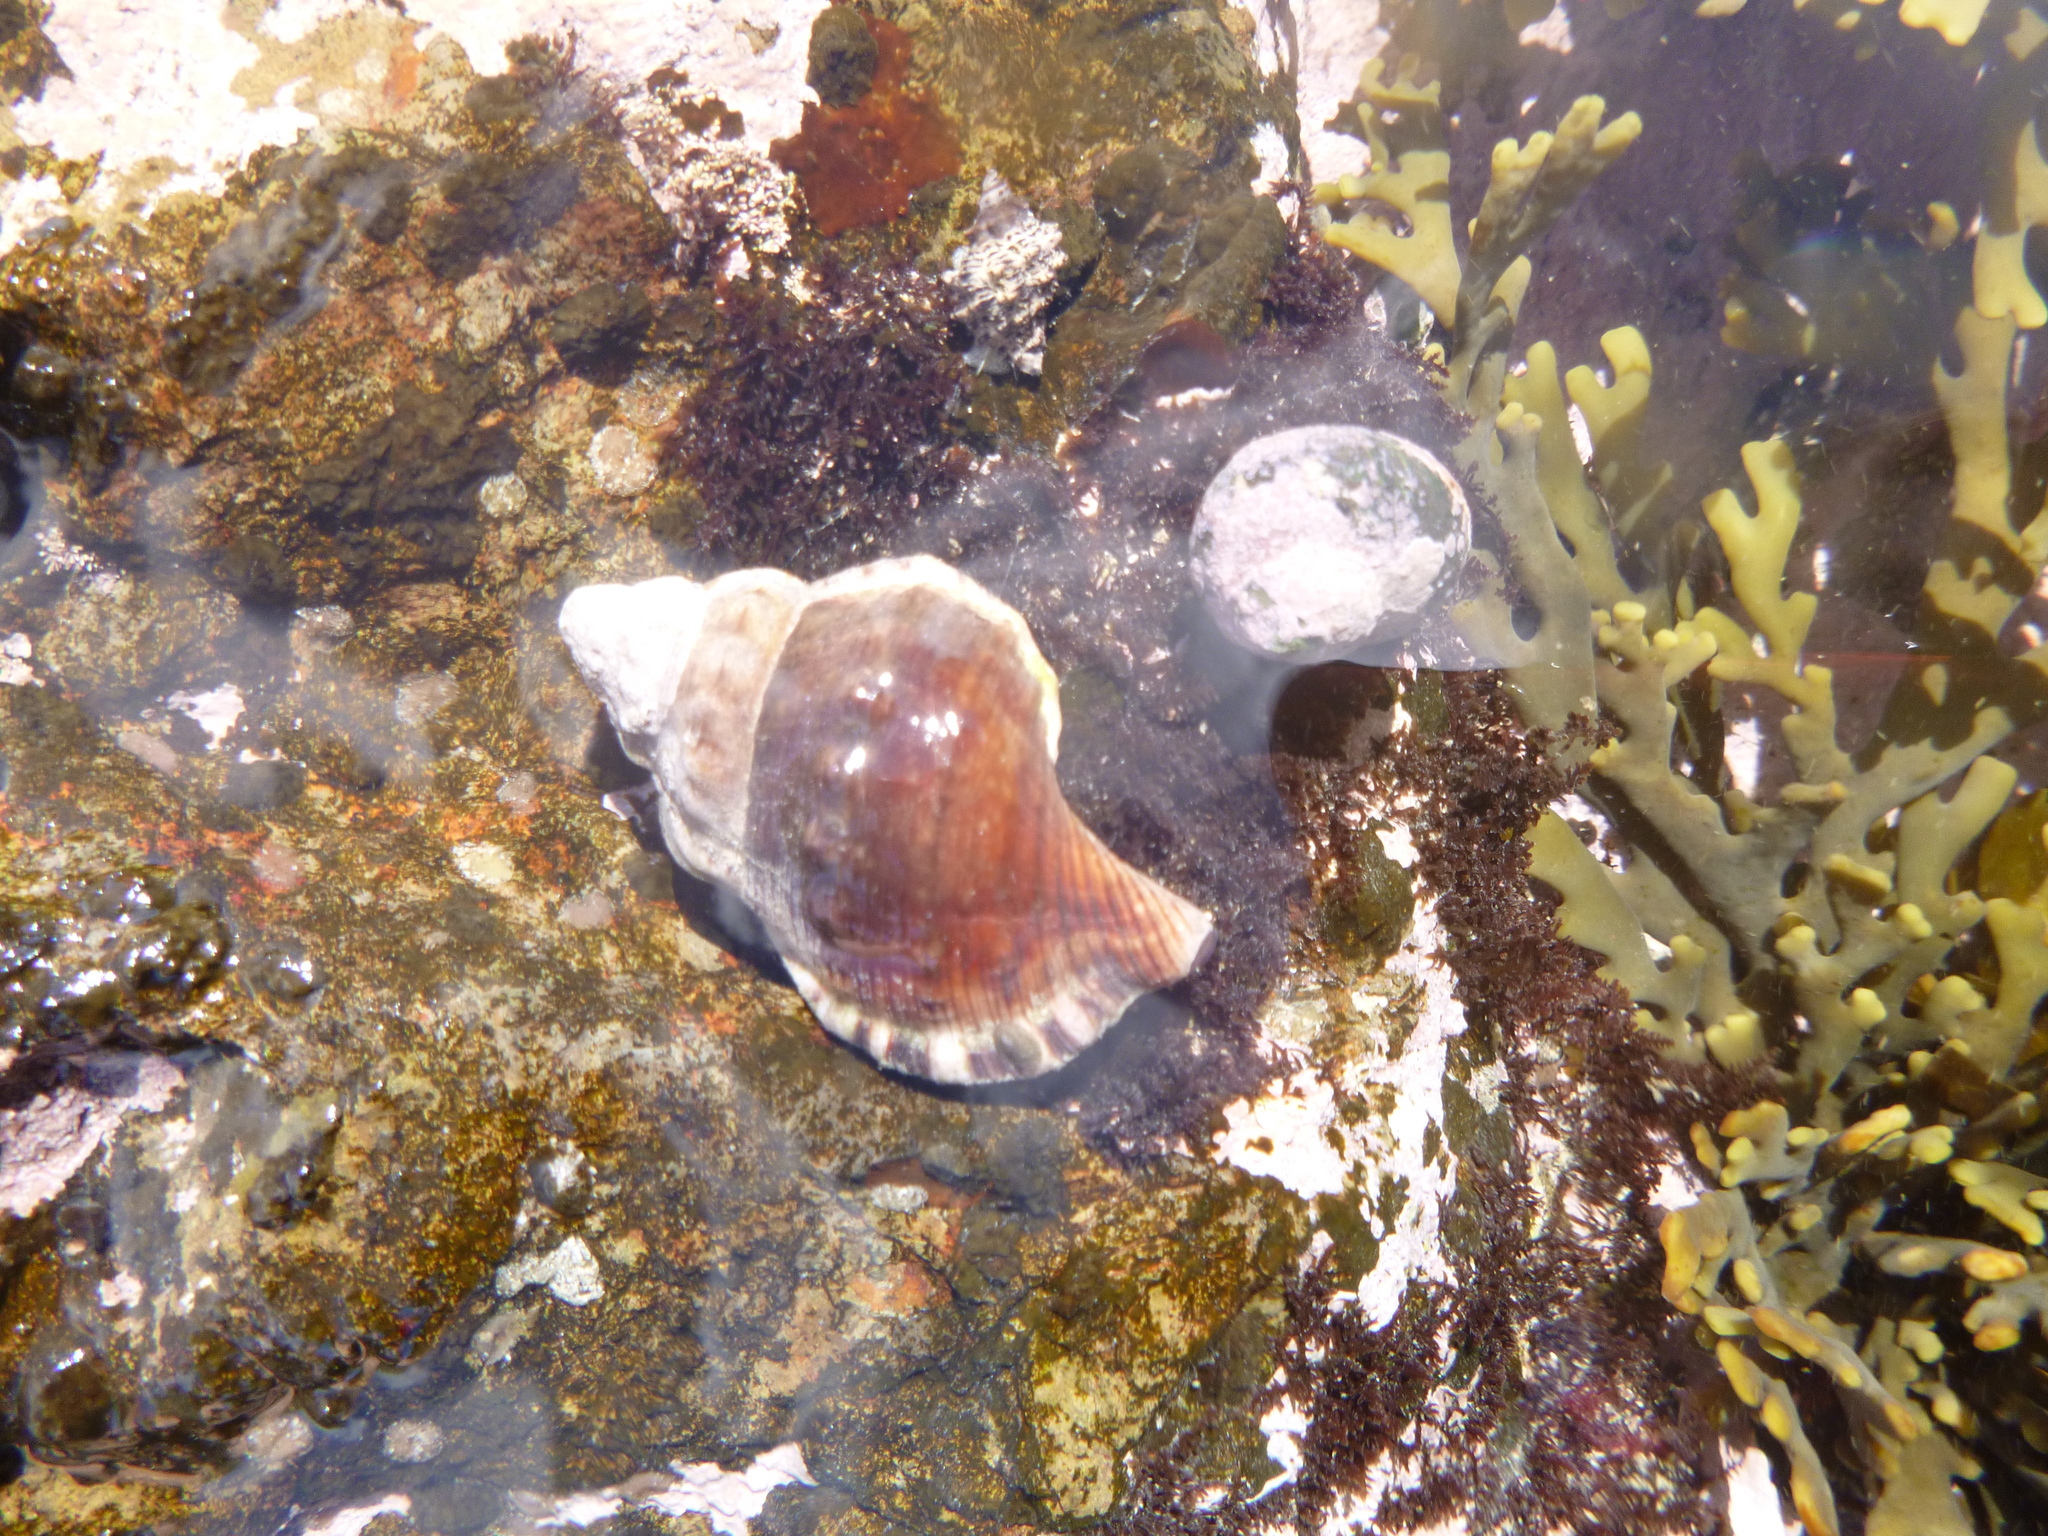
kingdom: Animalia
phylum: Mollusca
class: Gastropoda
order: Littorinimorpha
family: Ranellidae
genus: Ranella
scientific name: Ranella australasia
